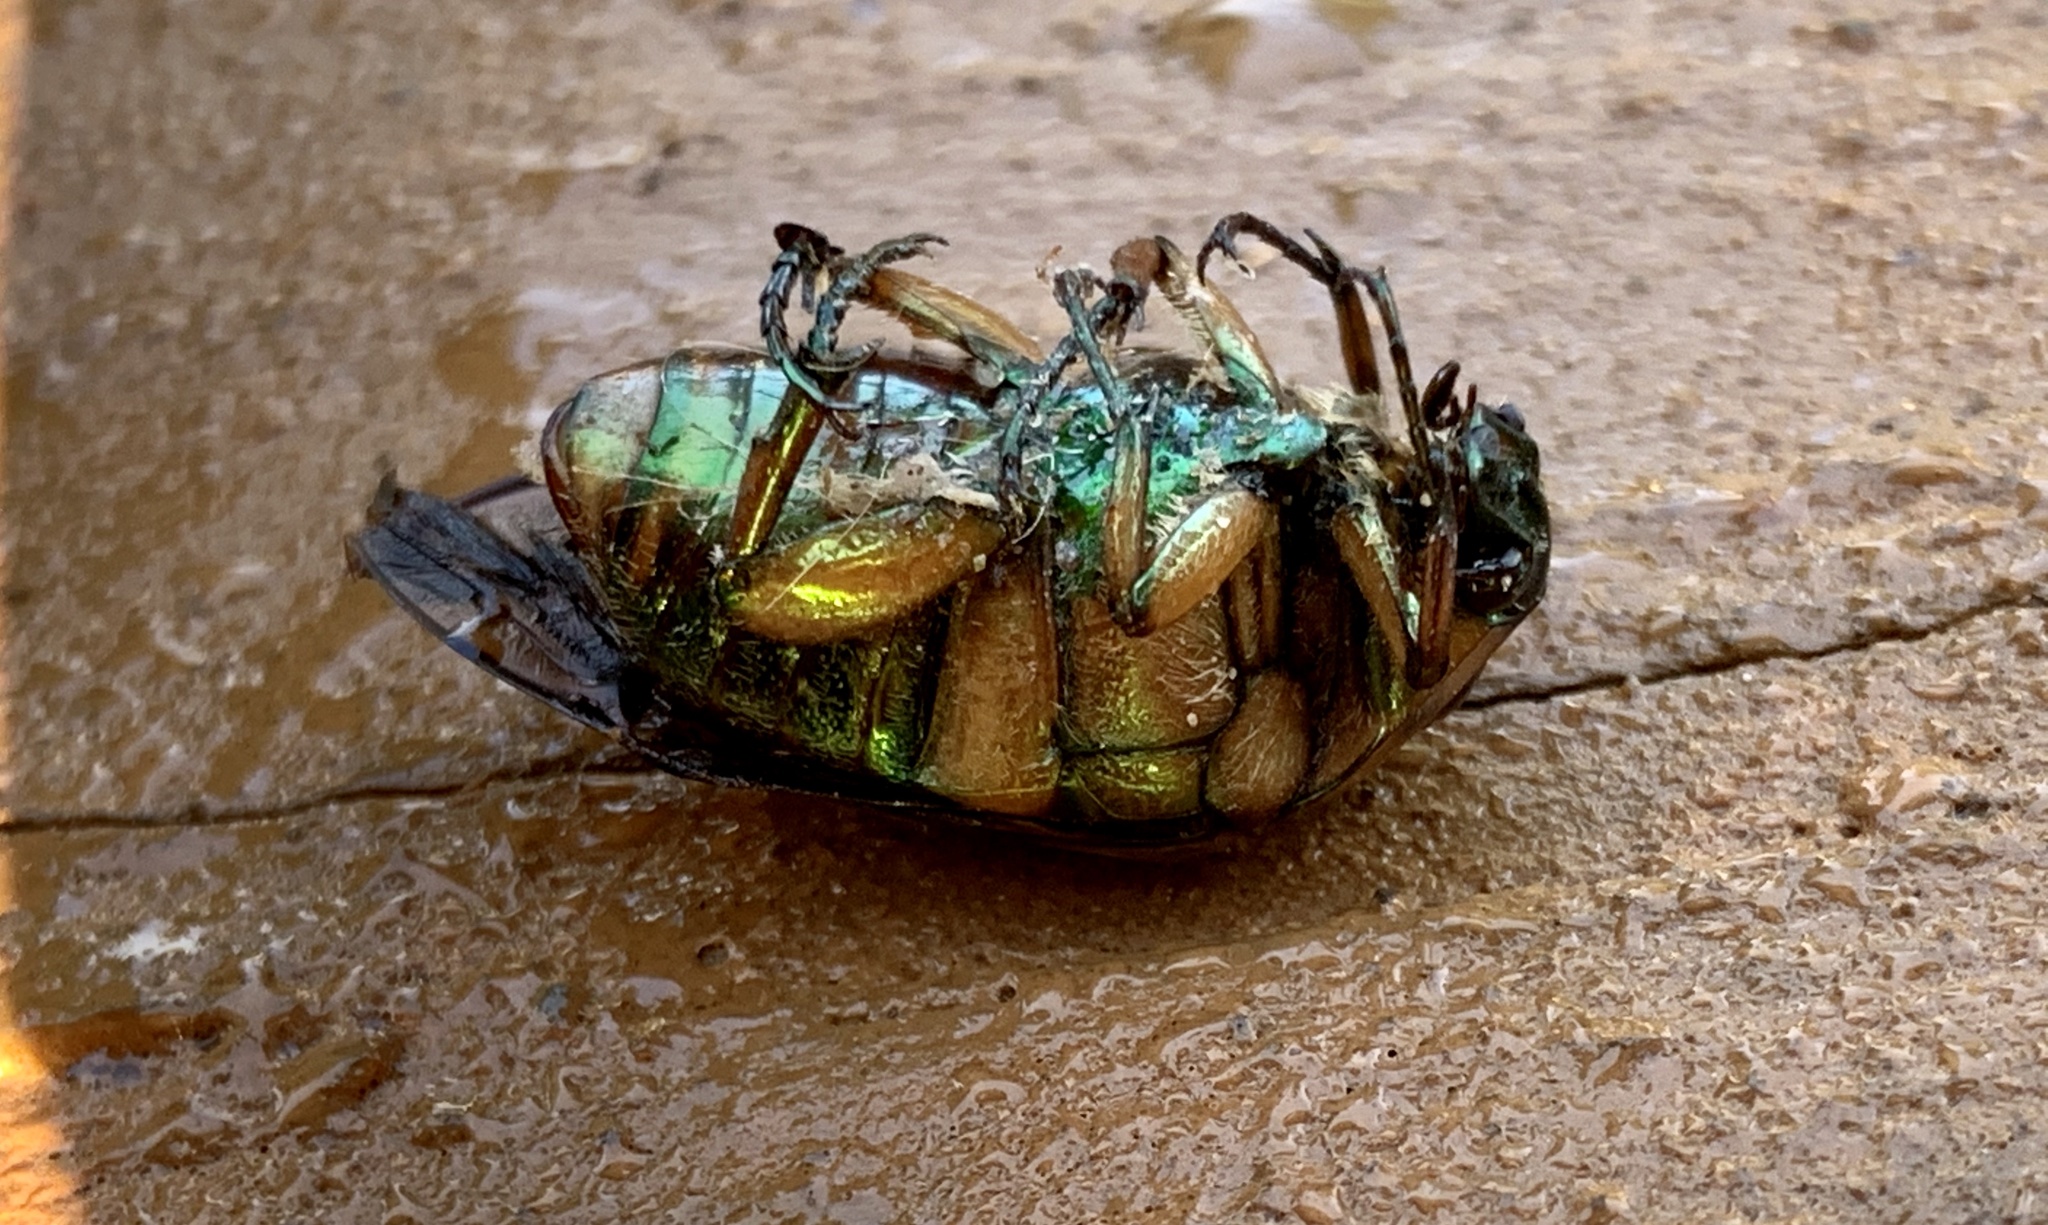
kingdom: Animalia
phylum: Arthropoda
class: Insecta
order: Coleoptera
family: Scarabaeidae
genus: Cotinis
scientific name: Cotinis nitida
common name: Common green june beetle
